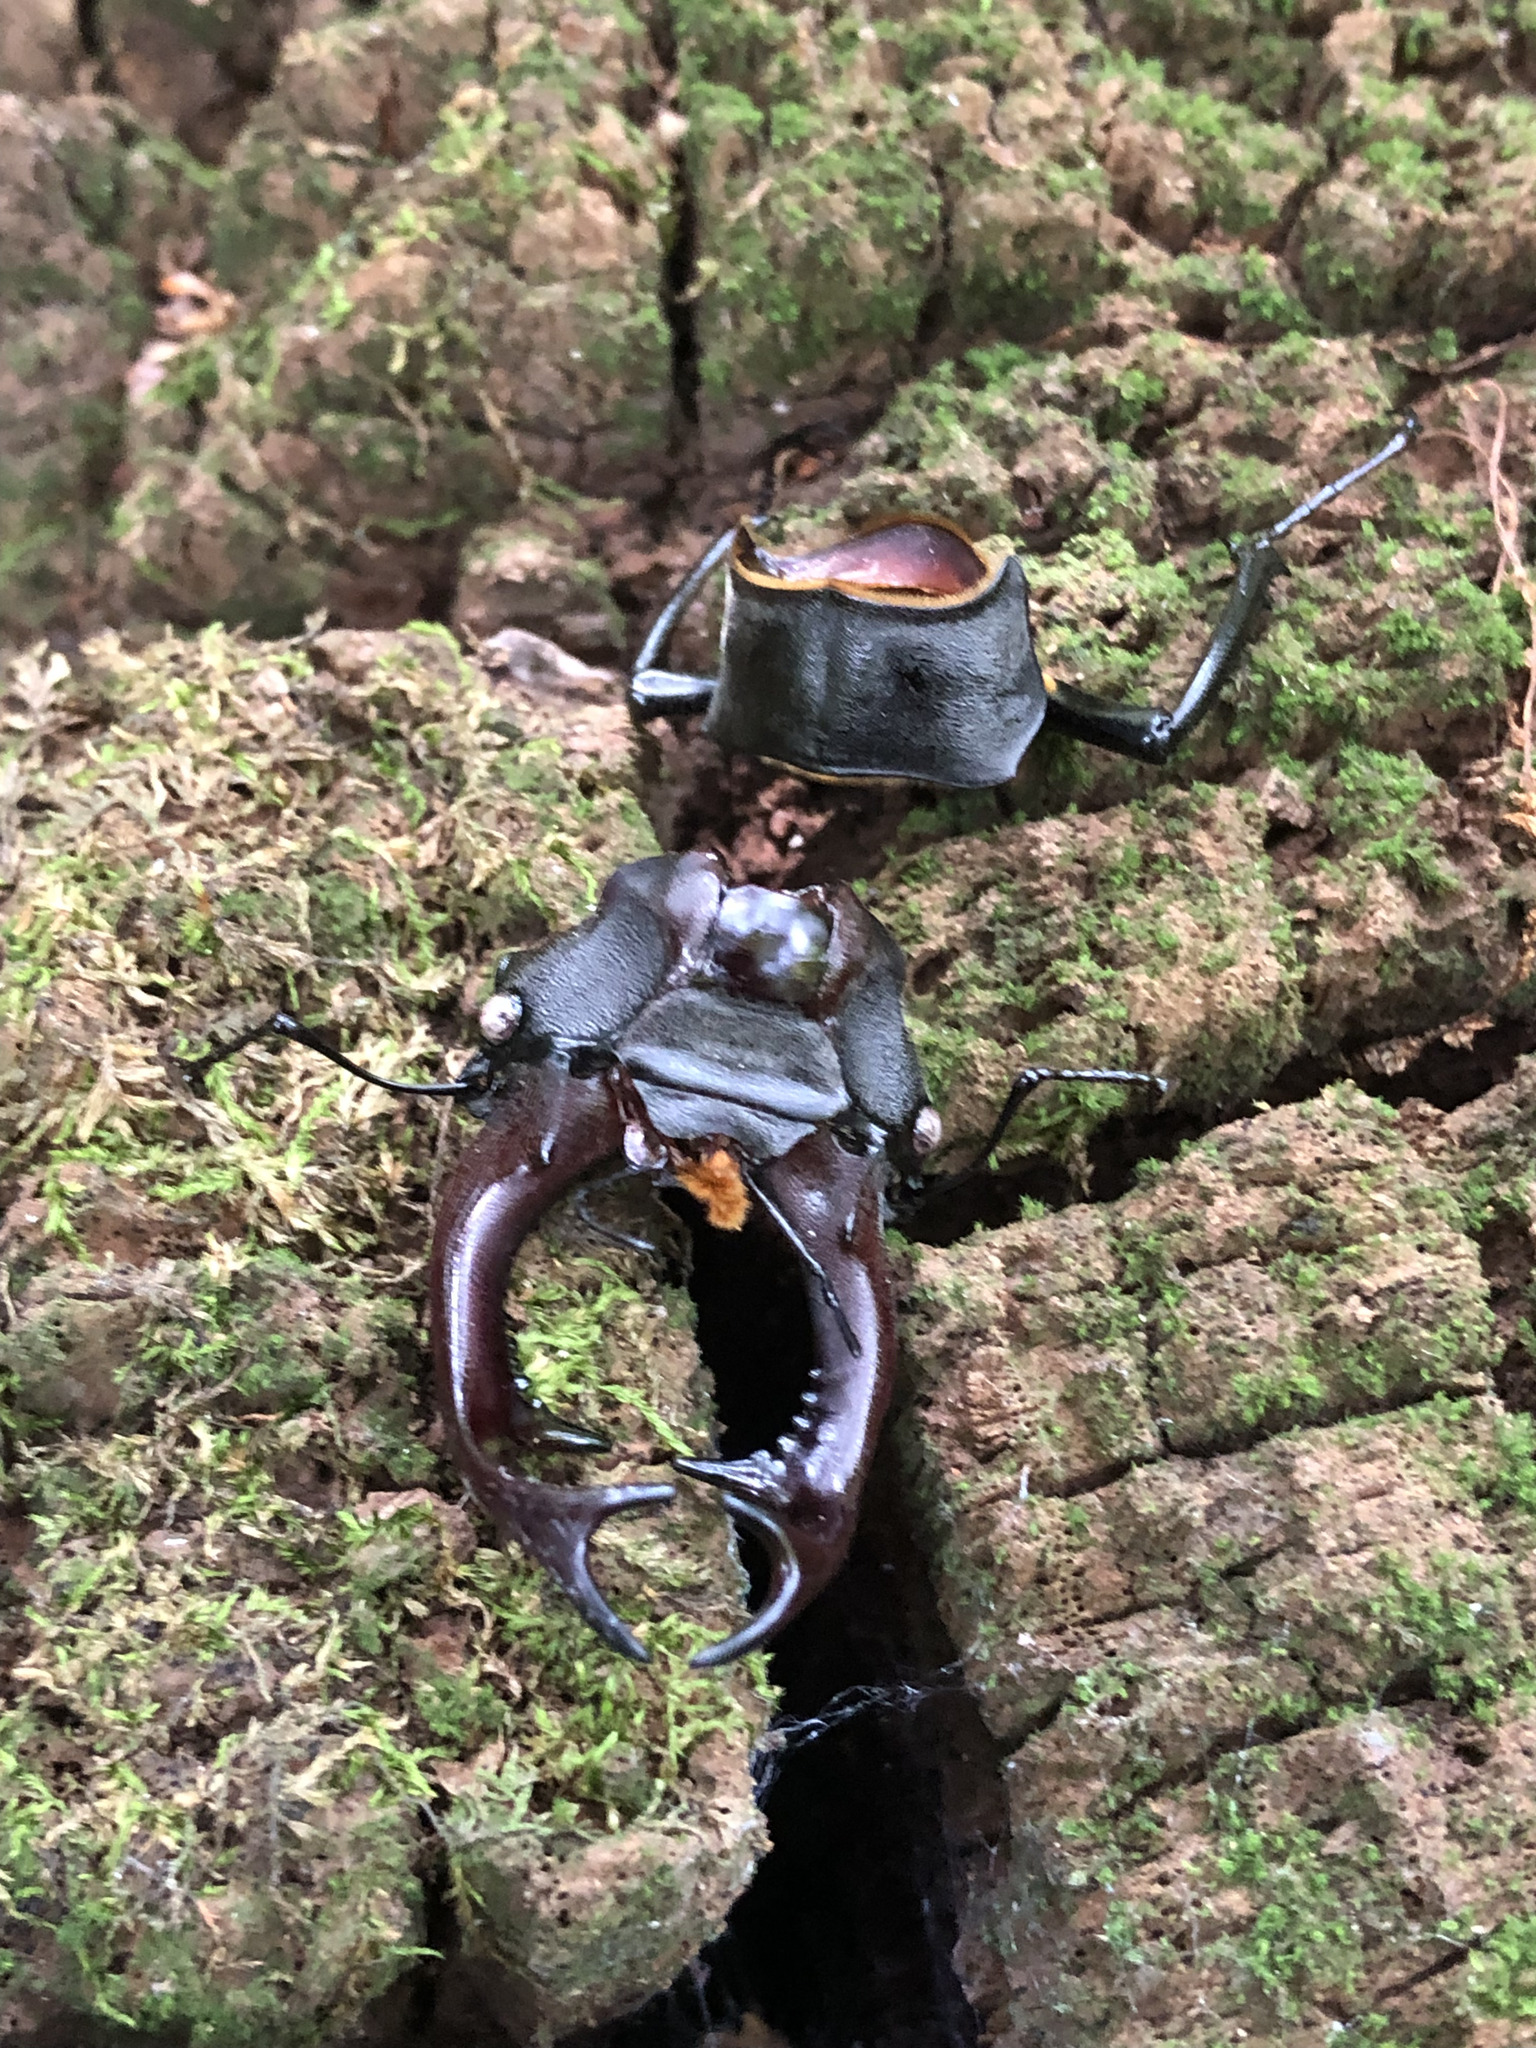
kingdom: Animalia
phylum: Arthropoda
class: Insecta
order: Coleoptera
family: Lucanidae
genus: Lucanus
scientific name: Lucanus cervus
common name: Stag beetle
